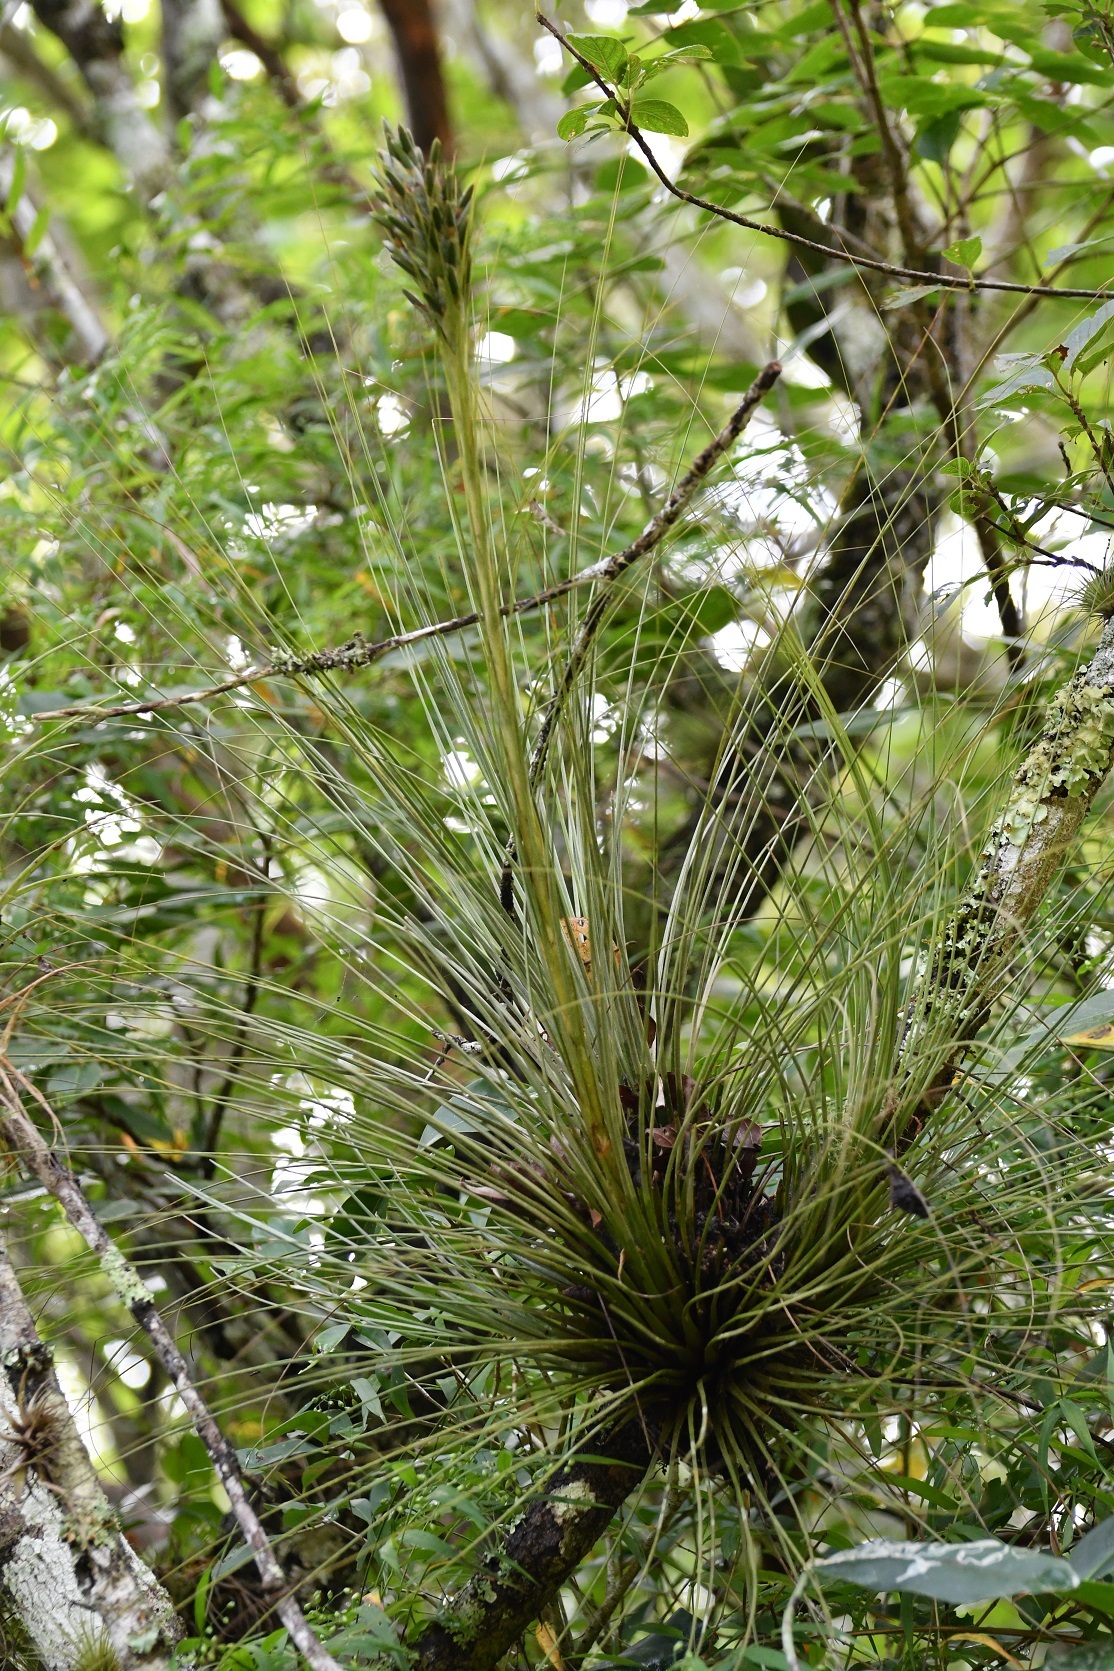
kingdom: Plantae
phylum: Tracheophyta
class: Liliopsida
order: Poales
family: Bromeliaceae
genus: Tillandsia
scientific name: Tillandsia juncea
